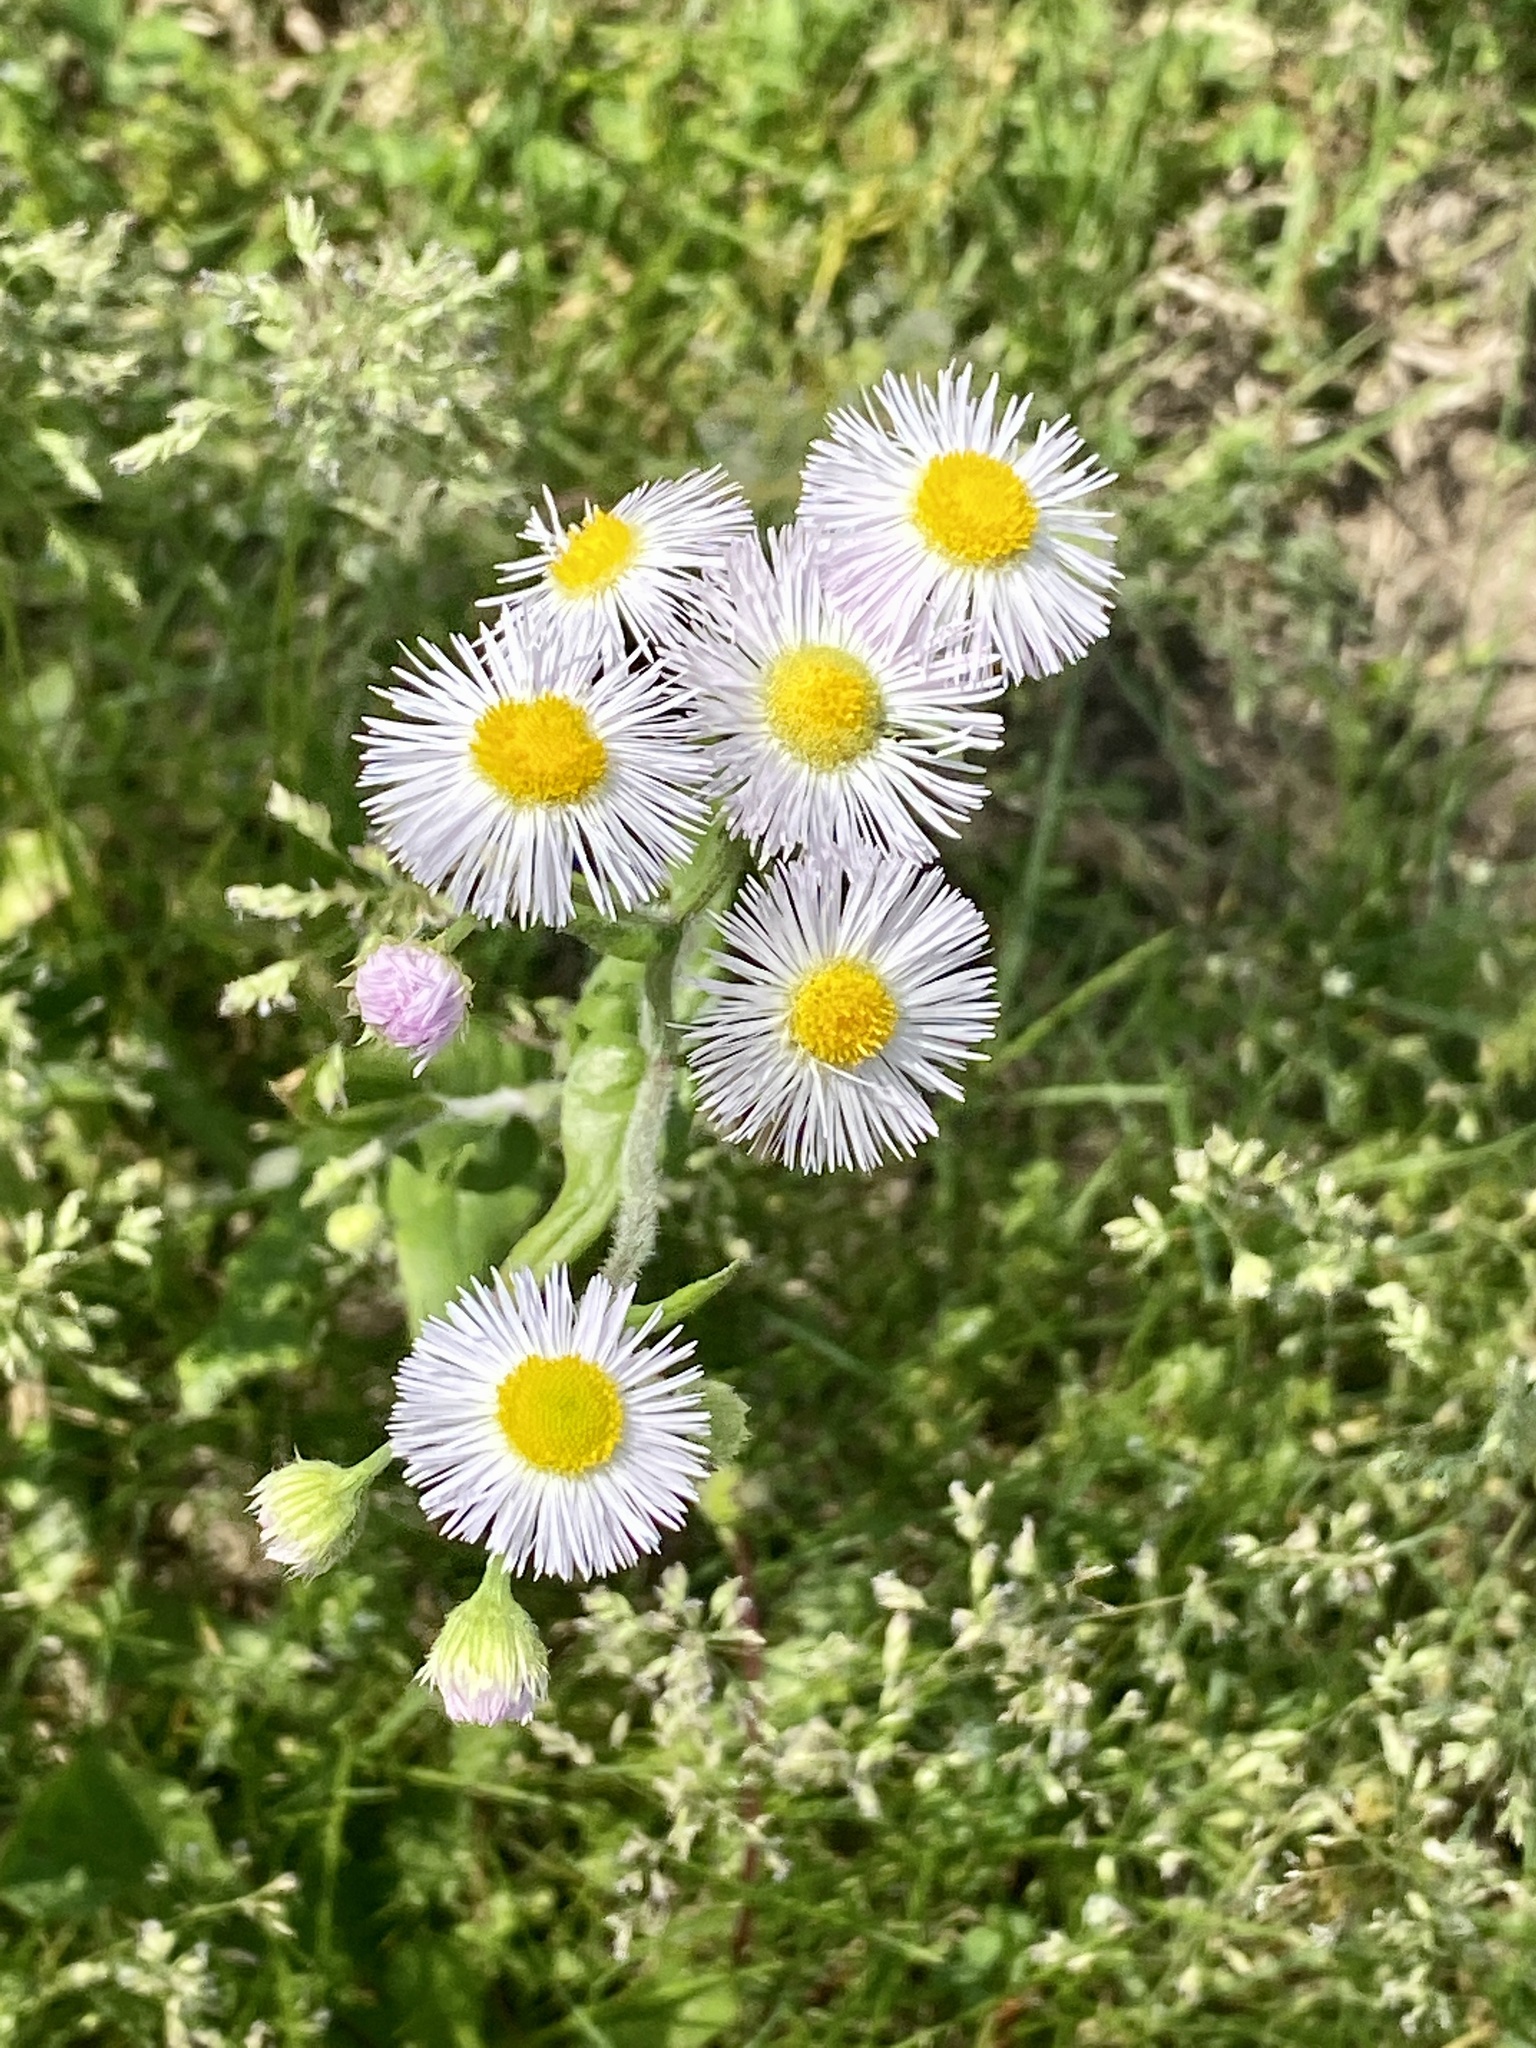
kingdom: Plantae
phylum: Tracheophyta
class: Magnoliopsida
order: Asterales
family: Asteraceae
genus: Erigeron
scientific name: Erigeron philadelphicus
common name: Robin's-plantain
